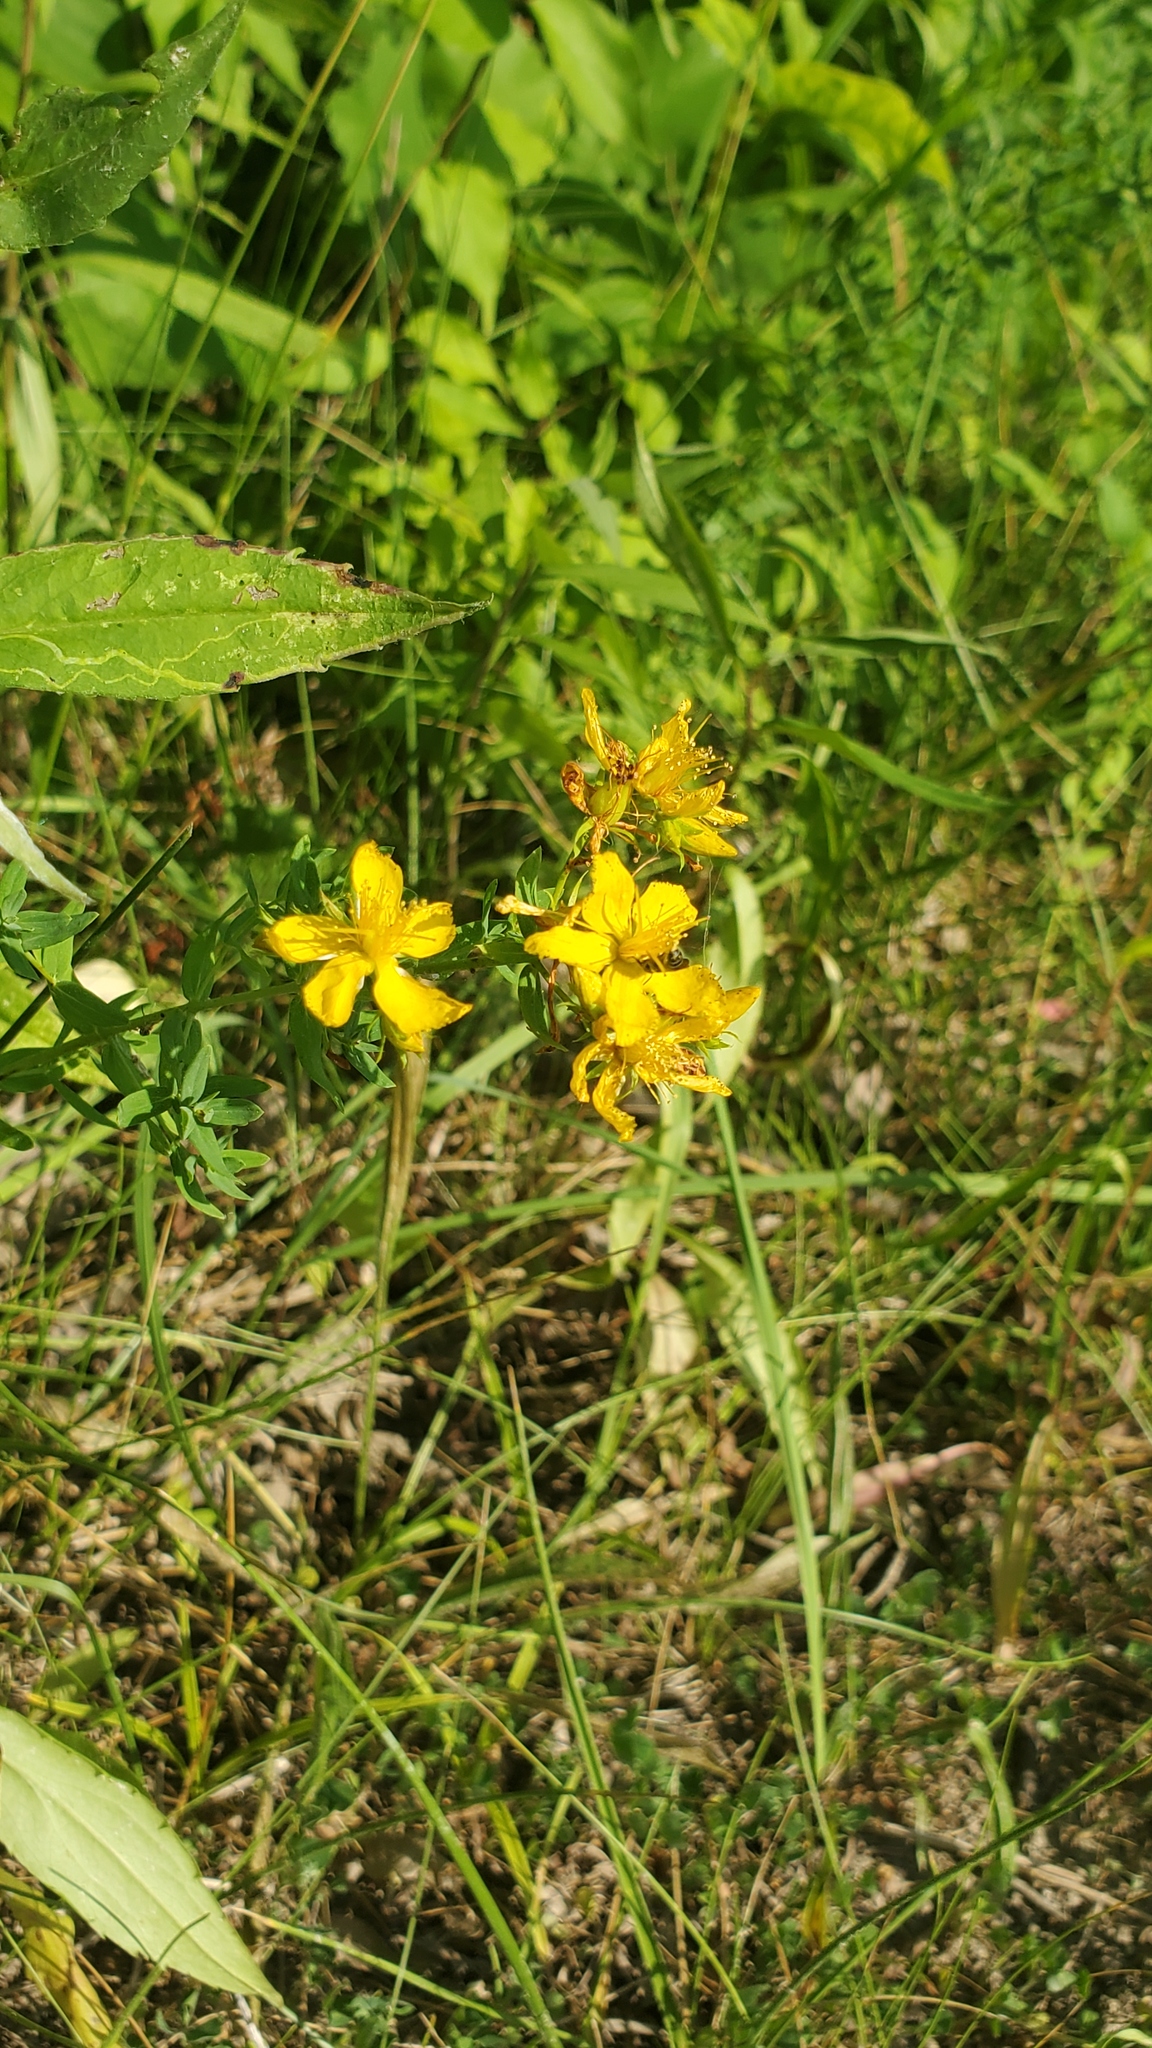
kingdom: Plantae
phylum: Tracheophyta
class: Magnoliopsida
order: Malpighiales
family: Hypericaceae
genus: Hypericum
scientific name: Hypericum perforatum
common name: Common st. johnswort
